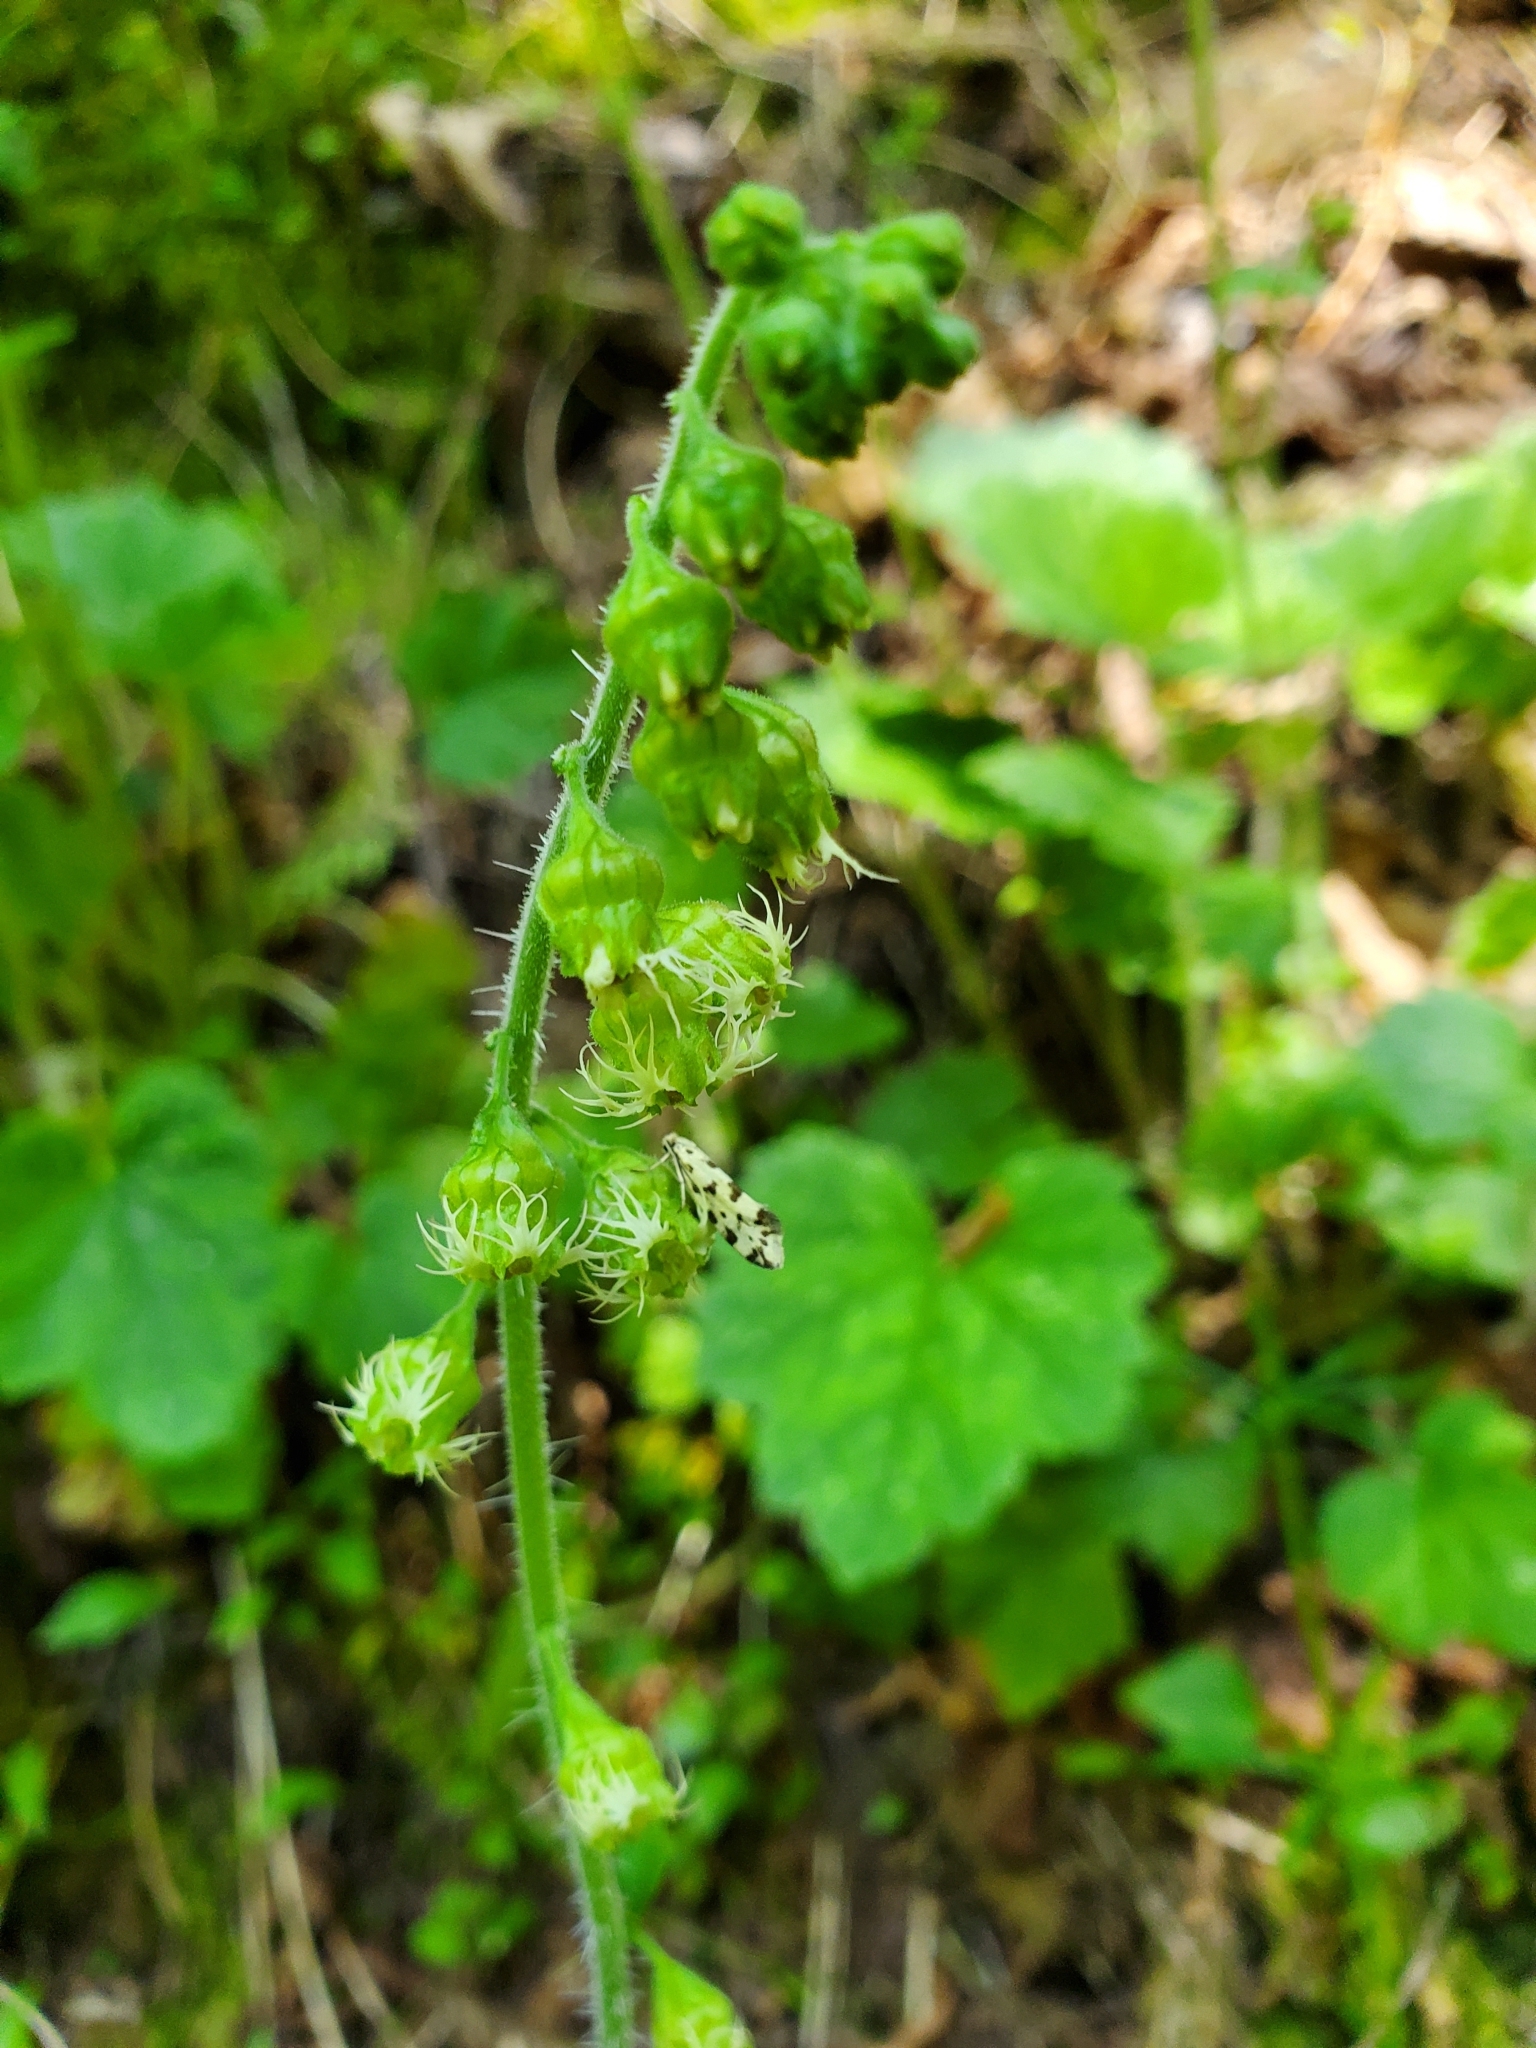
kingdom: Plantae
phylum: Tracheophyta
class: Magnoliopsida
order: Saxifragales
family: Saxifragaceae
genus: Tellima
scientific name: Tellima grandiflora
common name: Fringecups
